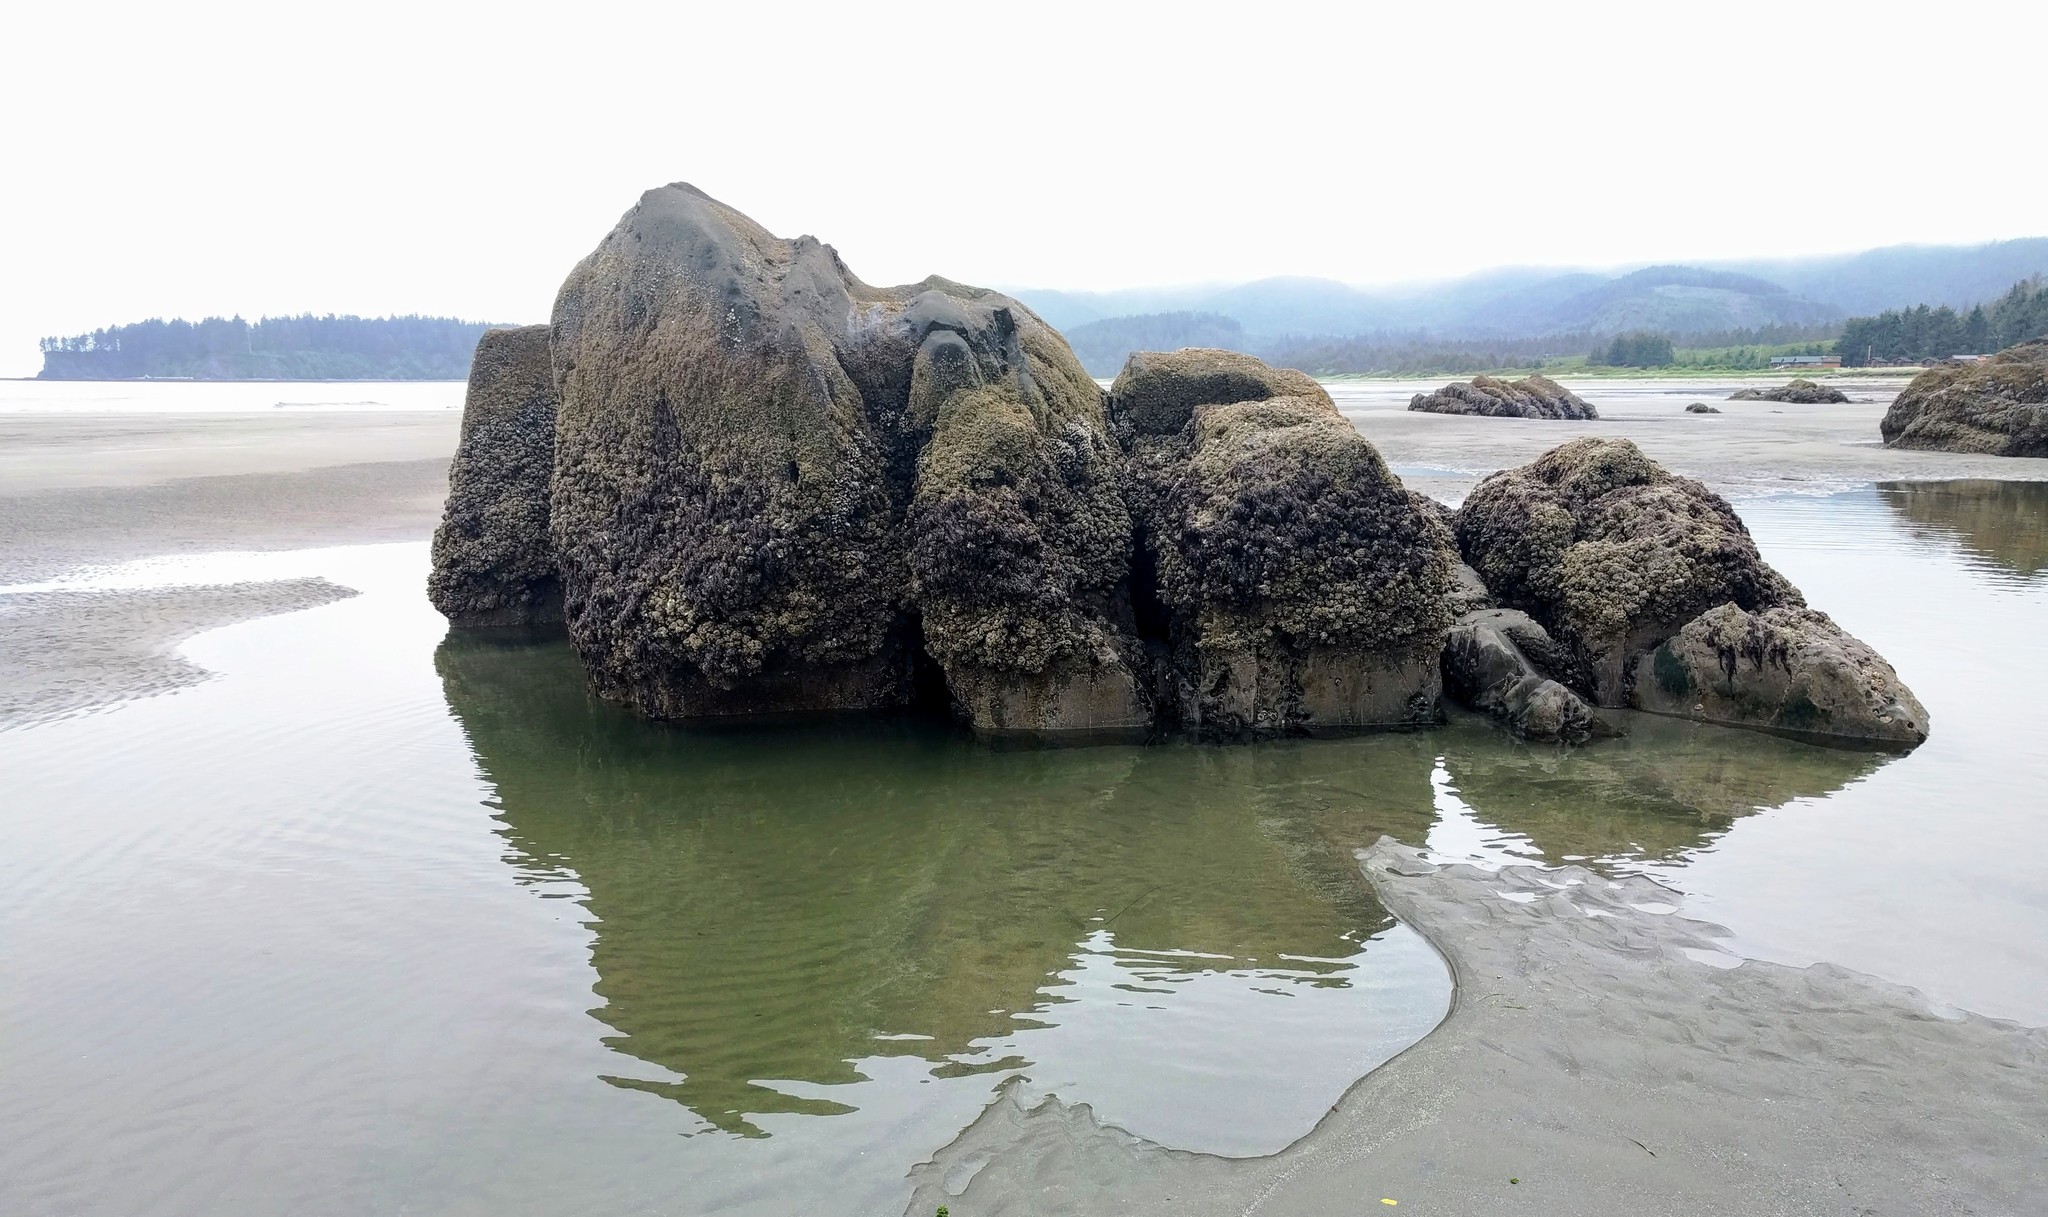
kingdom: Animalia
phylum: Cnidaria
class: Anthozoa
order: Actiniaria
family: Actiniidae
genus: Anthopleura
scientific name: Anthopleura xanthogrammica
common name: Giant green anemone
